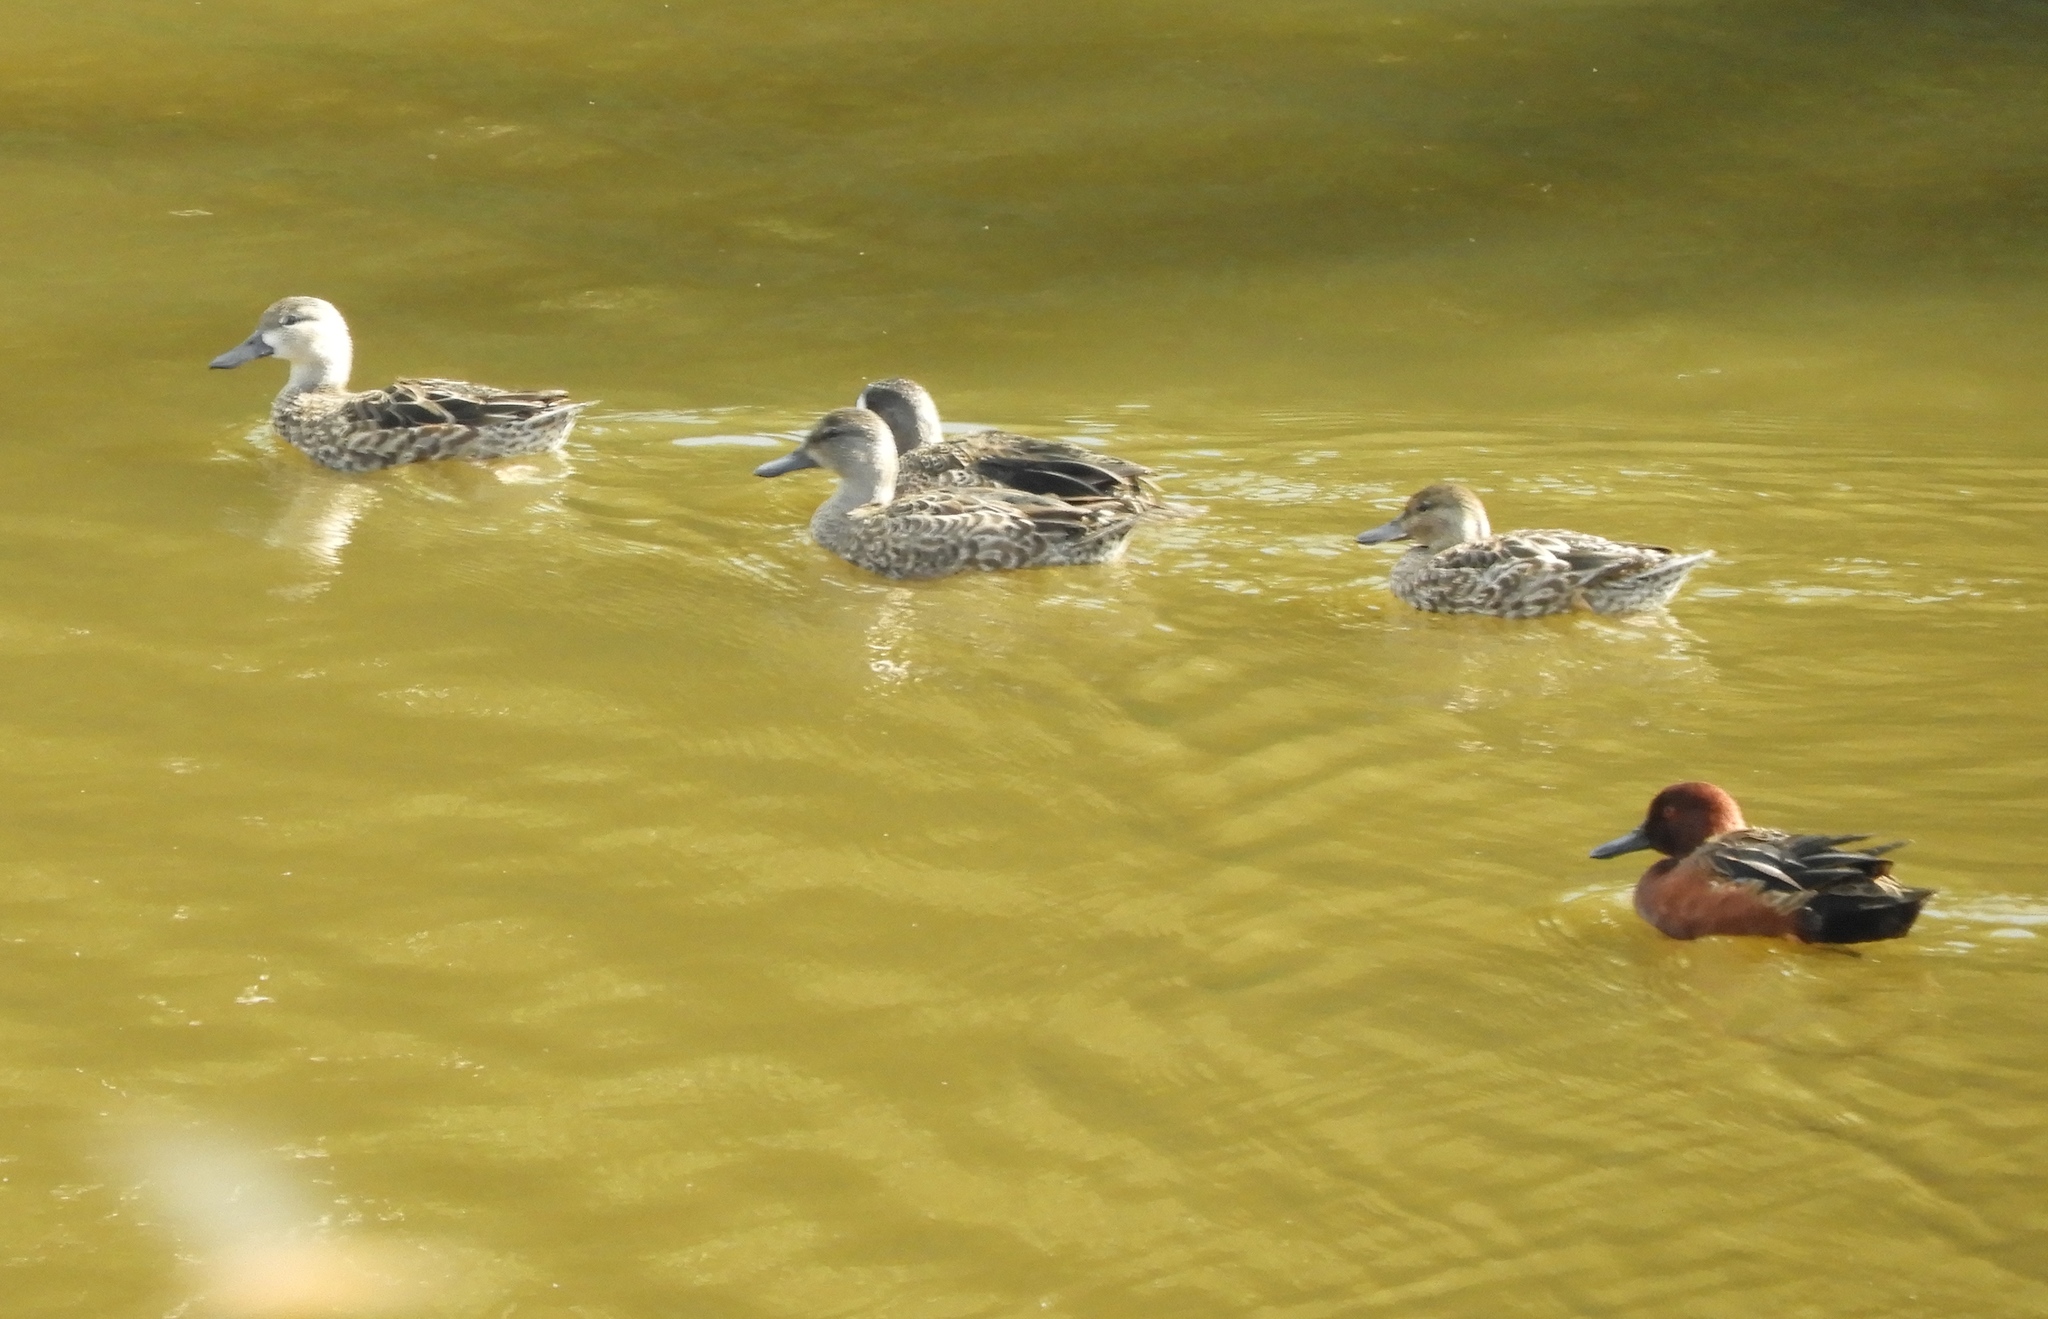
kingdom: Animalia
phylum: Chordata
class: Aves
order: Anseriformes
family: Anatidae
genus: Spatula
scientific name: Spatula cyanoptera
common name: Cinnamon teal
